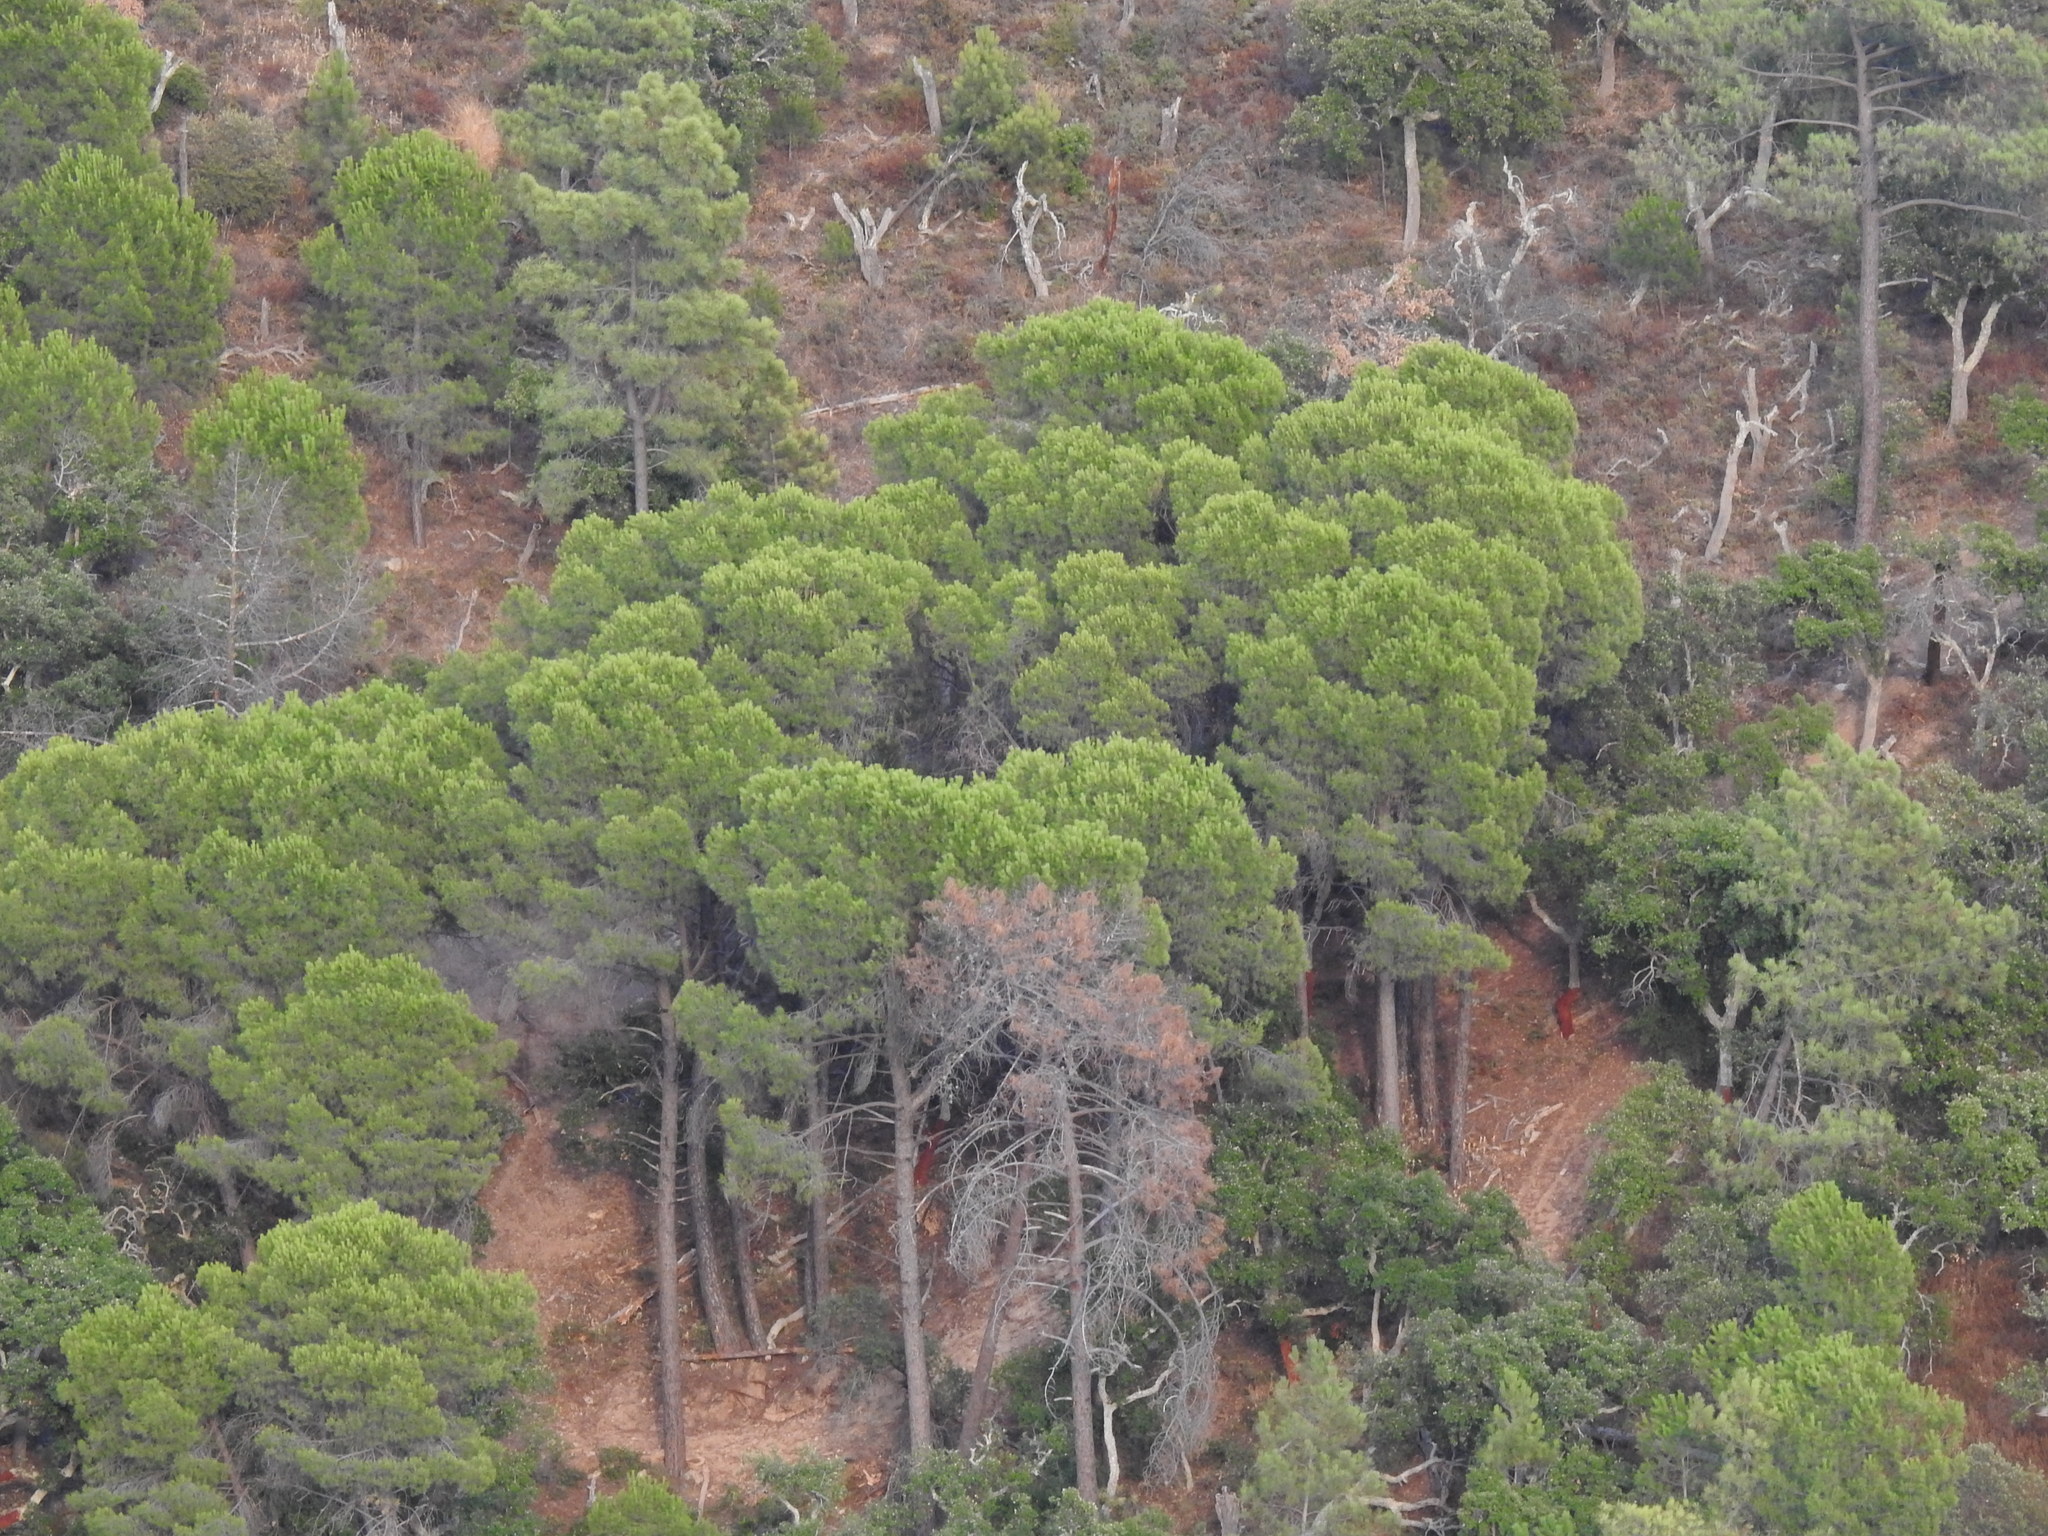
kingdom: Plantae
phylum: Tracheophyta
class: Pinopsida
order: Pinales
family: Pinaceae
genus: Pinus
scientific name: Pinus pinea
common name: Italian stone pine
